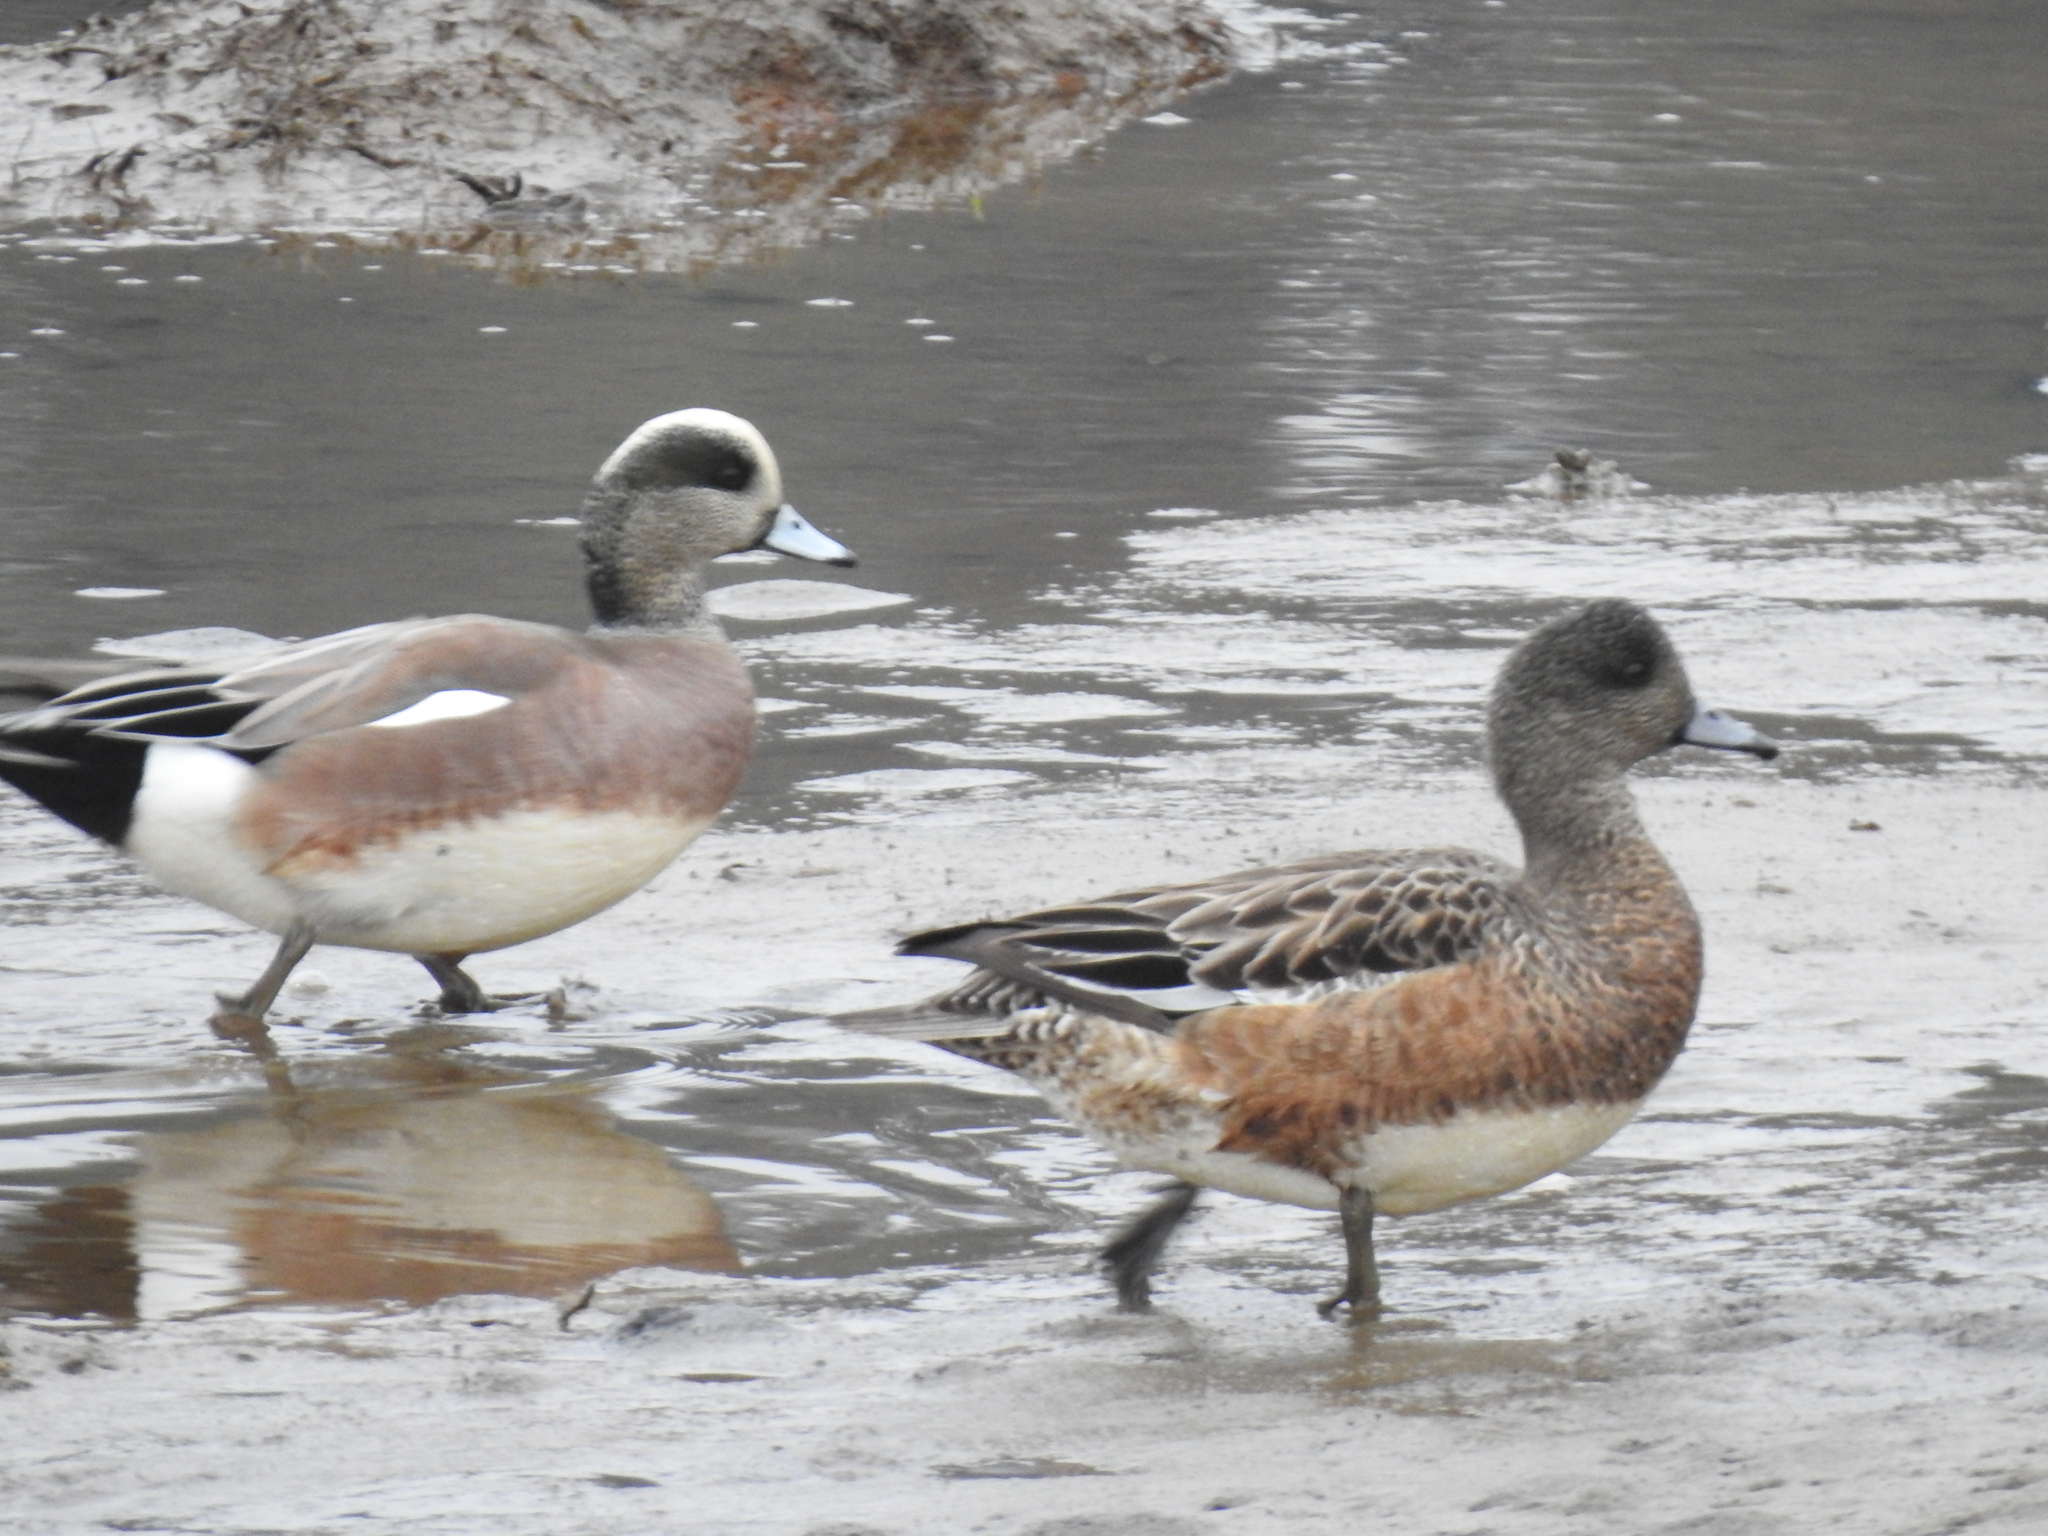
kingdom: Animalia
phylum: Chordata
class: Aves
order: Anseriformes
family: Anatidae
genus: Mareca
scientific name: Mareca americana
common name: American wigeon
